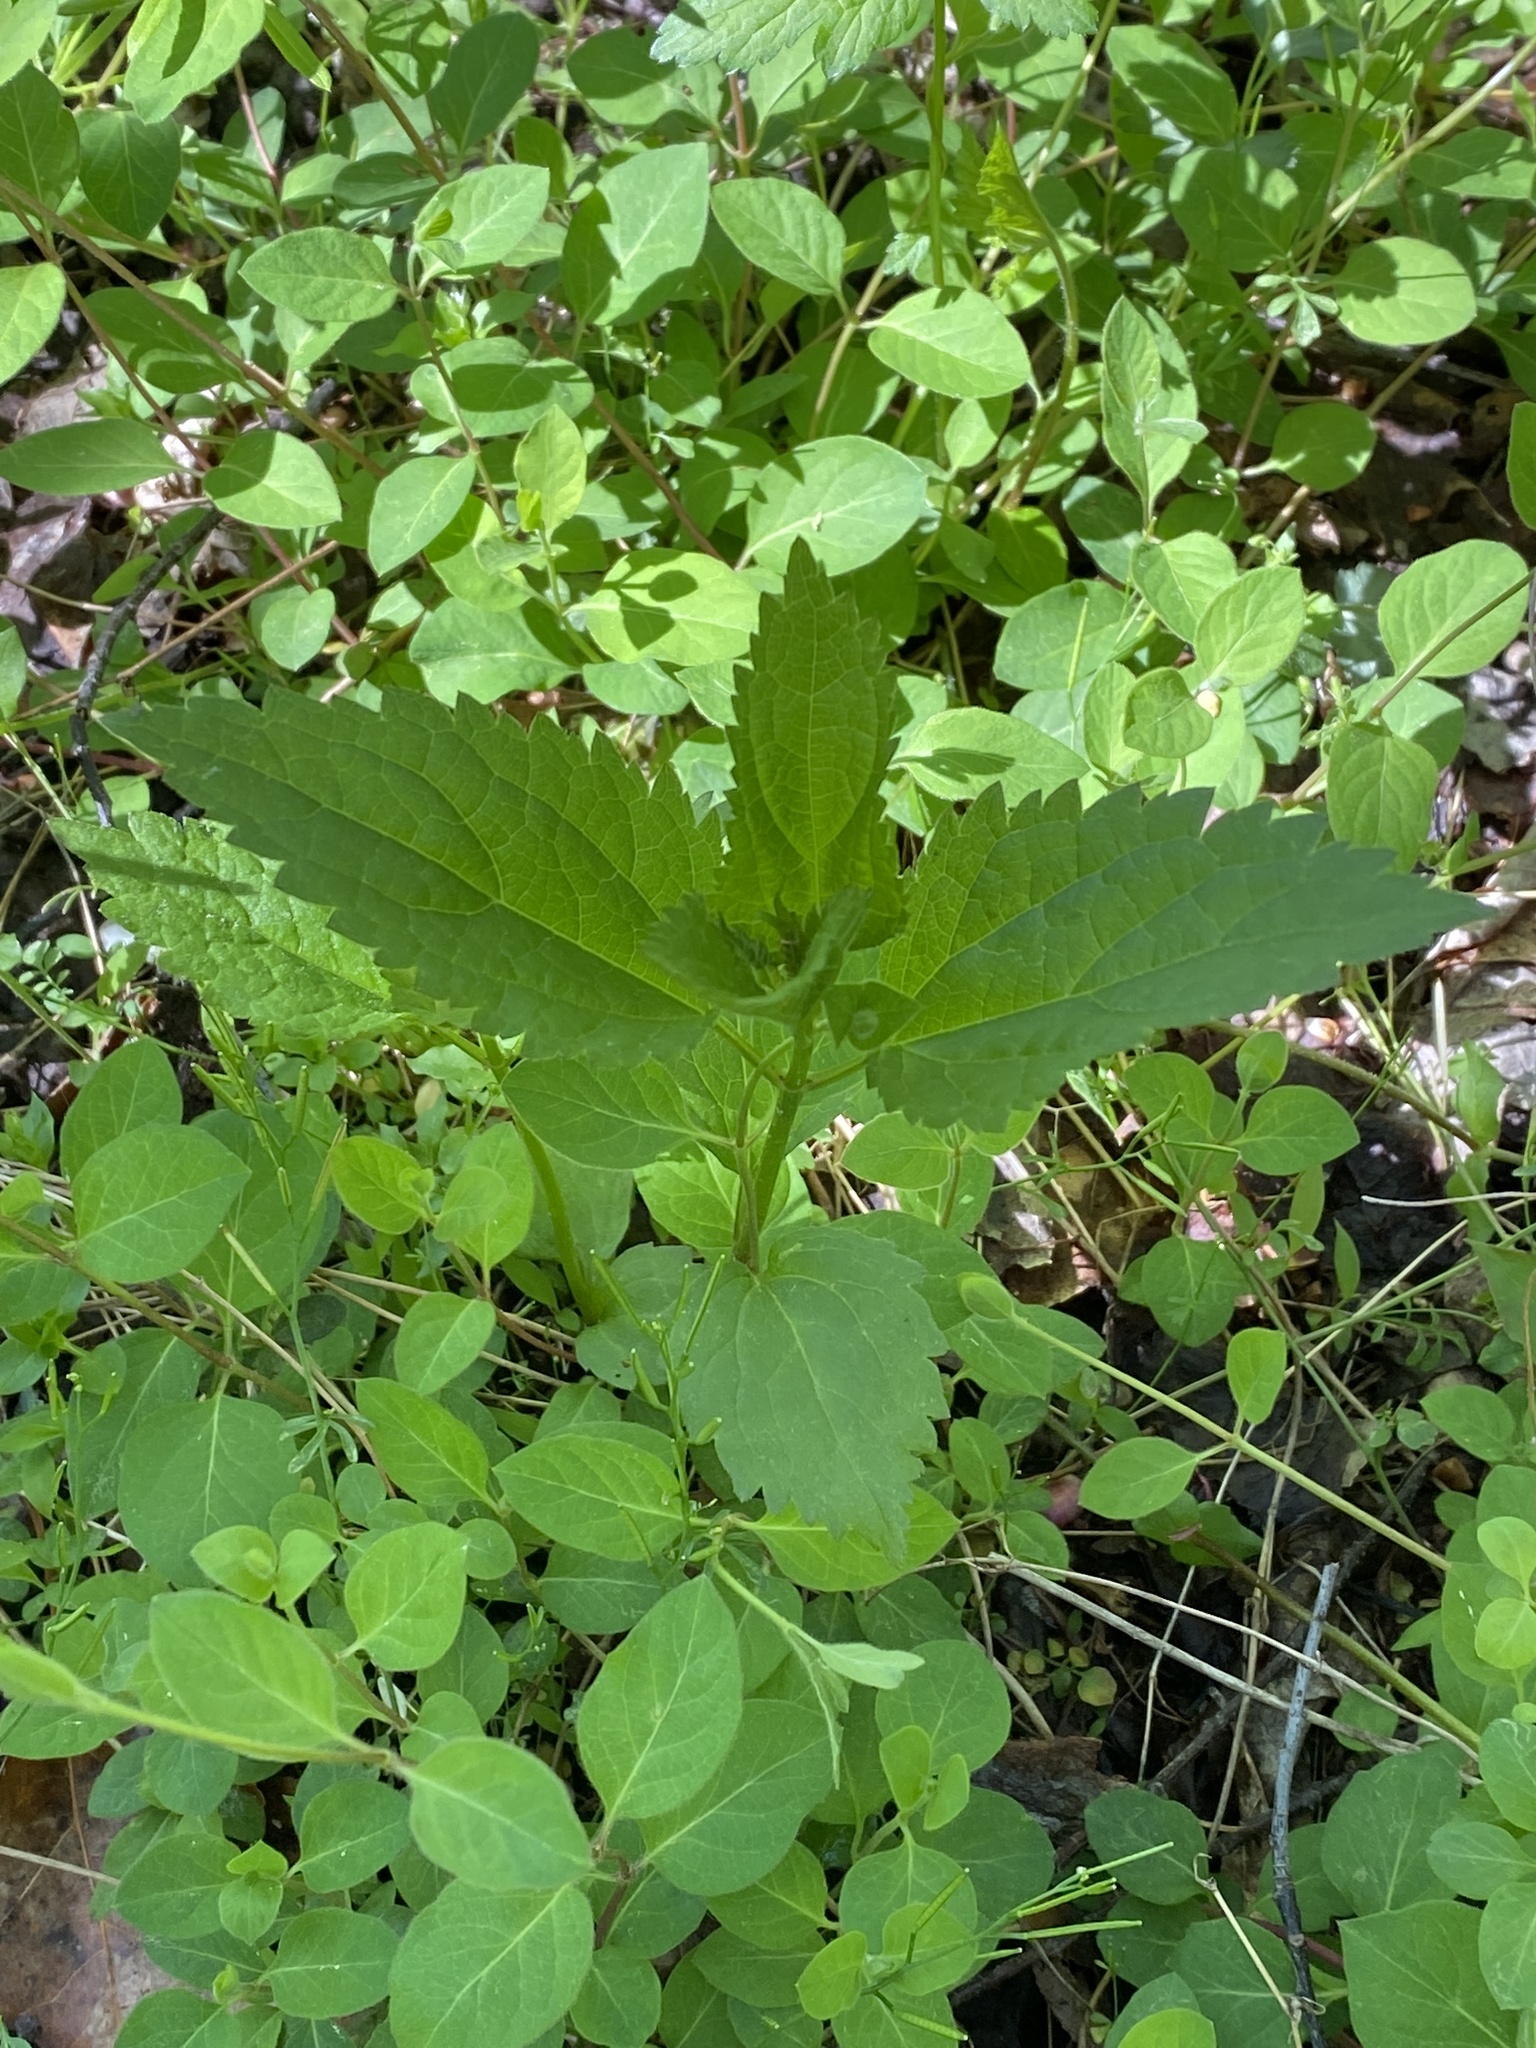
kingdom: Plantae
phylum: Tracheophyta
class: Magnoliopsida
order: Asterales
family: Asteraceae
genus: Ageratina
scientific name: Ageratina altissima
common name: White snakeroot
